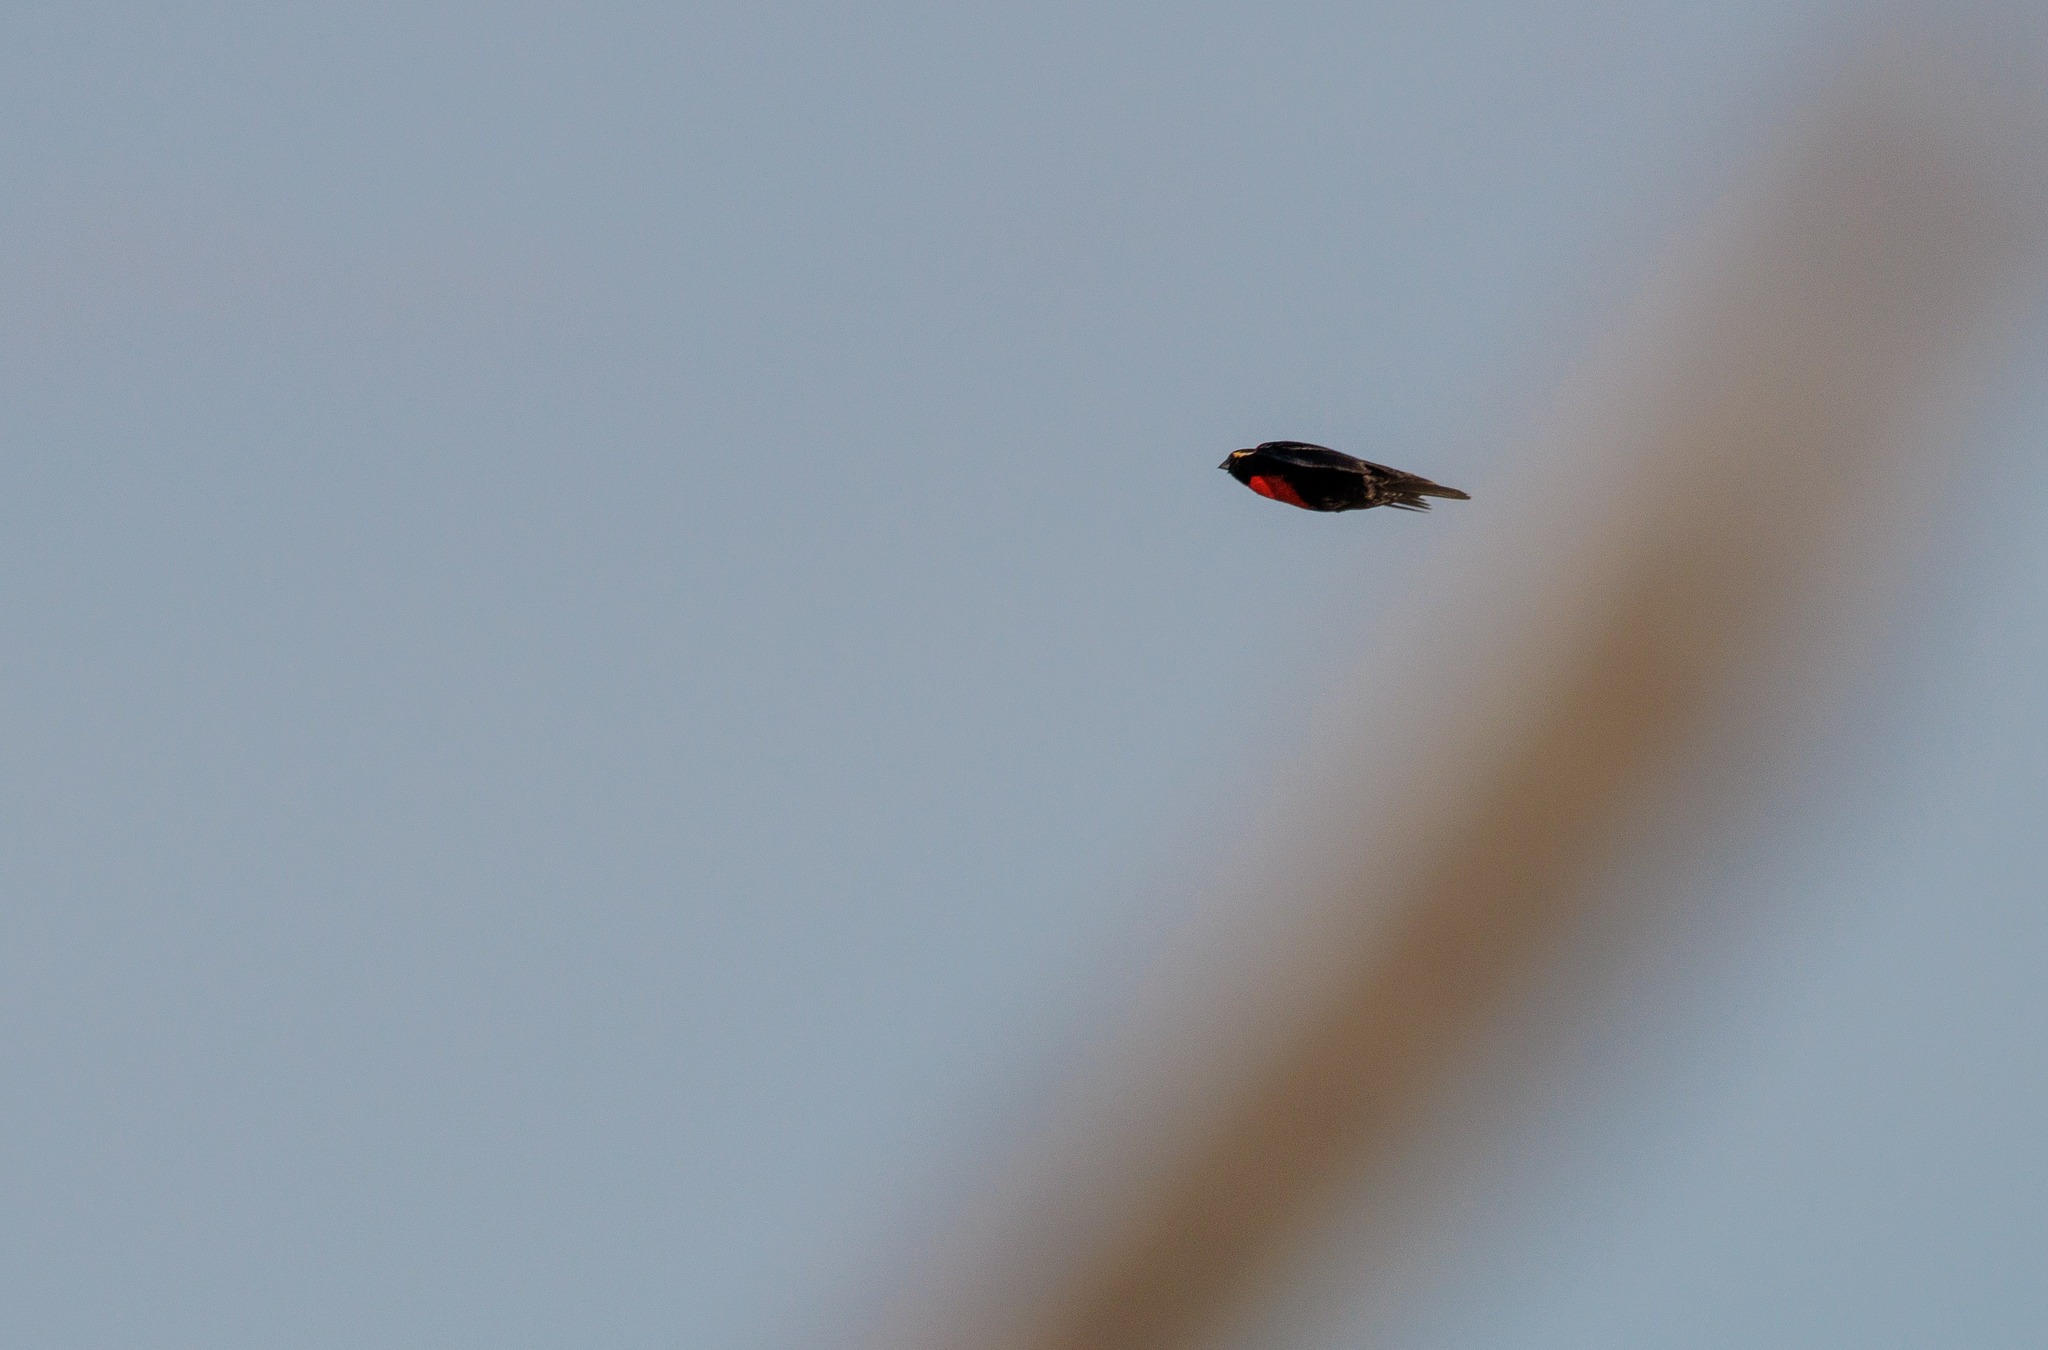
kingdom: Animalia
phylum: Chordata
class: Aves
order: Passeriformes
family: Icteridae
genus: Sturnella
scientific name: Sturnella superciliaris
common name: White-browed blackbird
